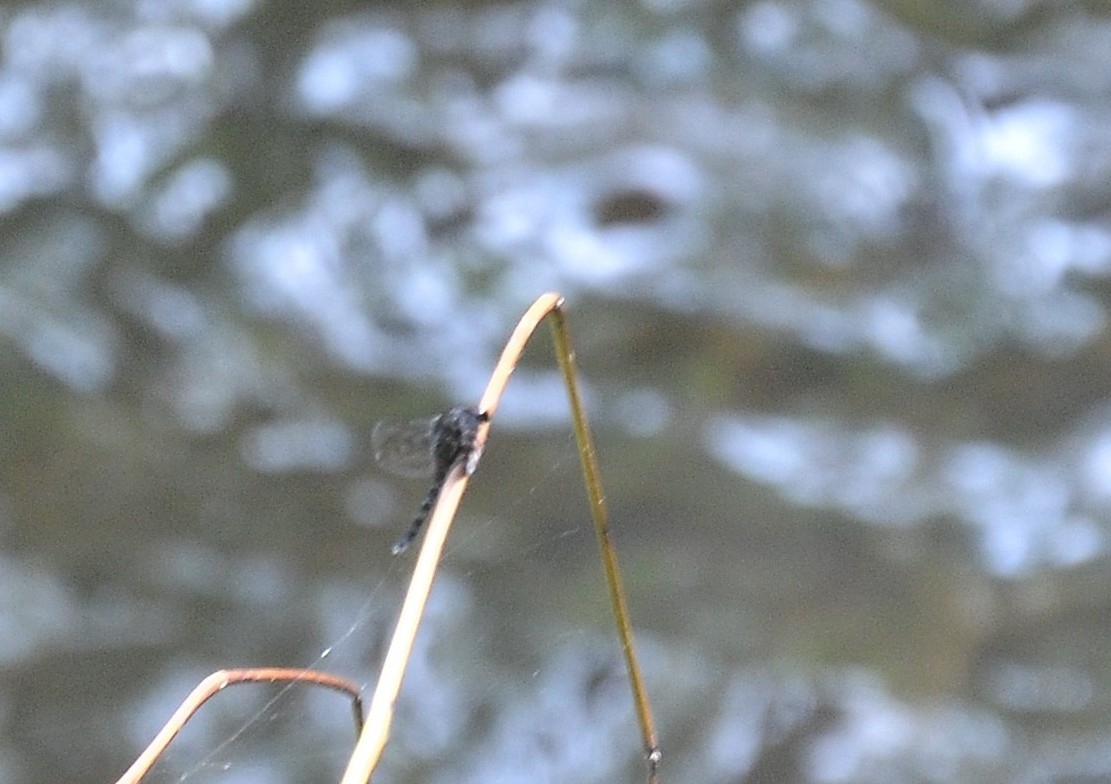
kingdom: Animalia
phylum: Arthropoda
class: Insecta
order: Odonata
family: Euphaeidae
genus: Dysphaea
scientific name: Dysphaea ethela
